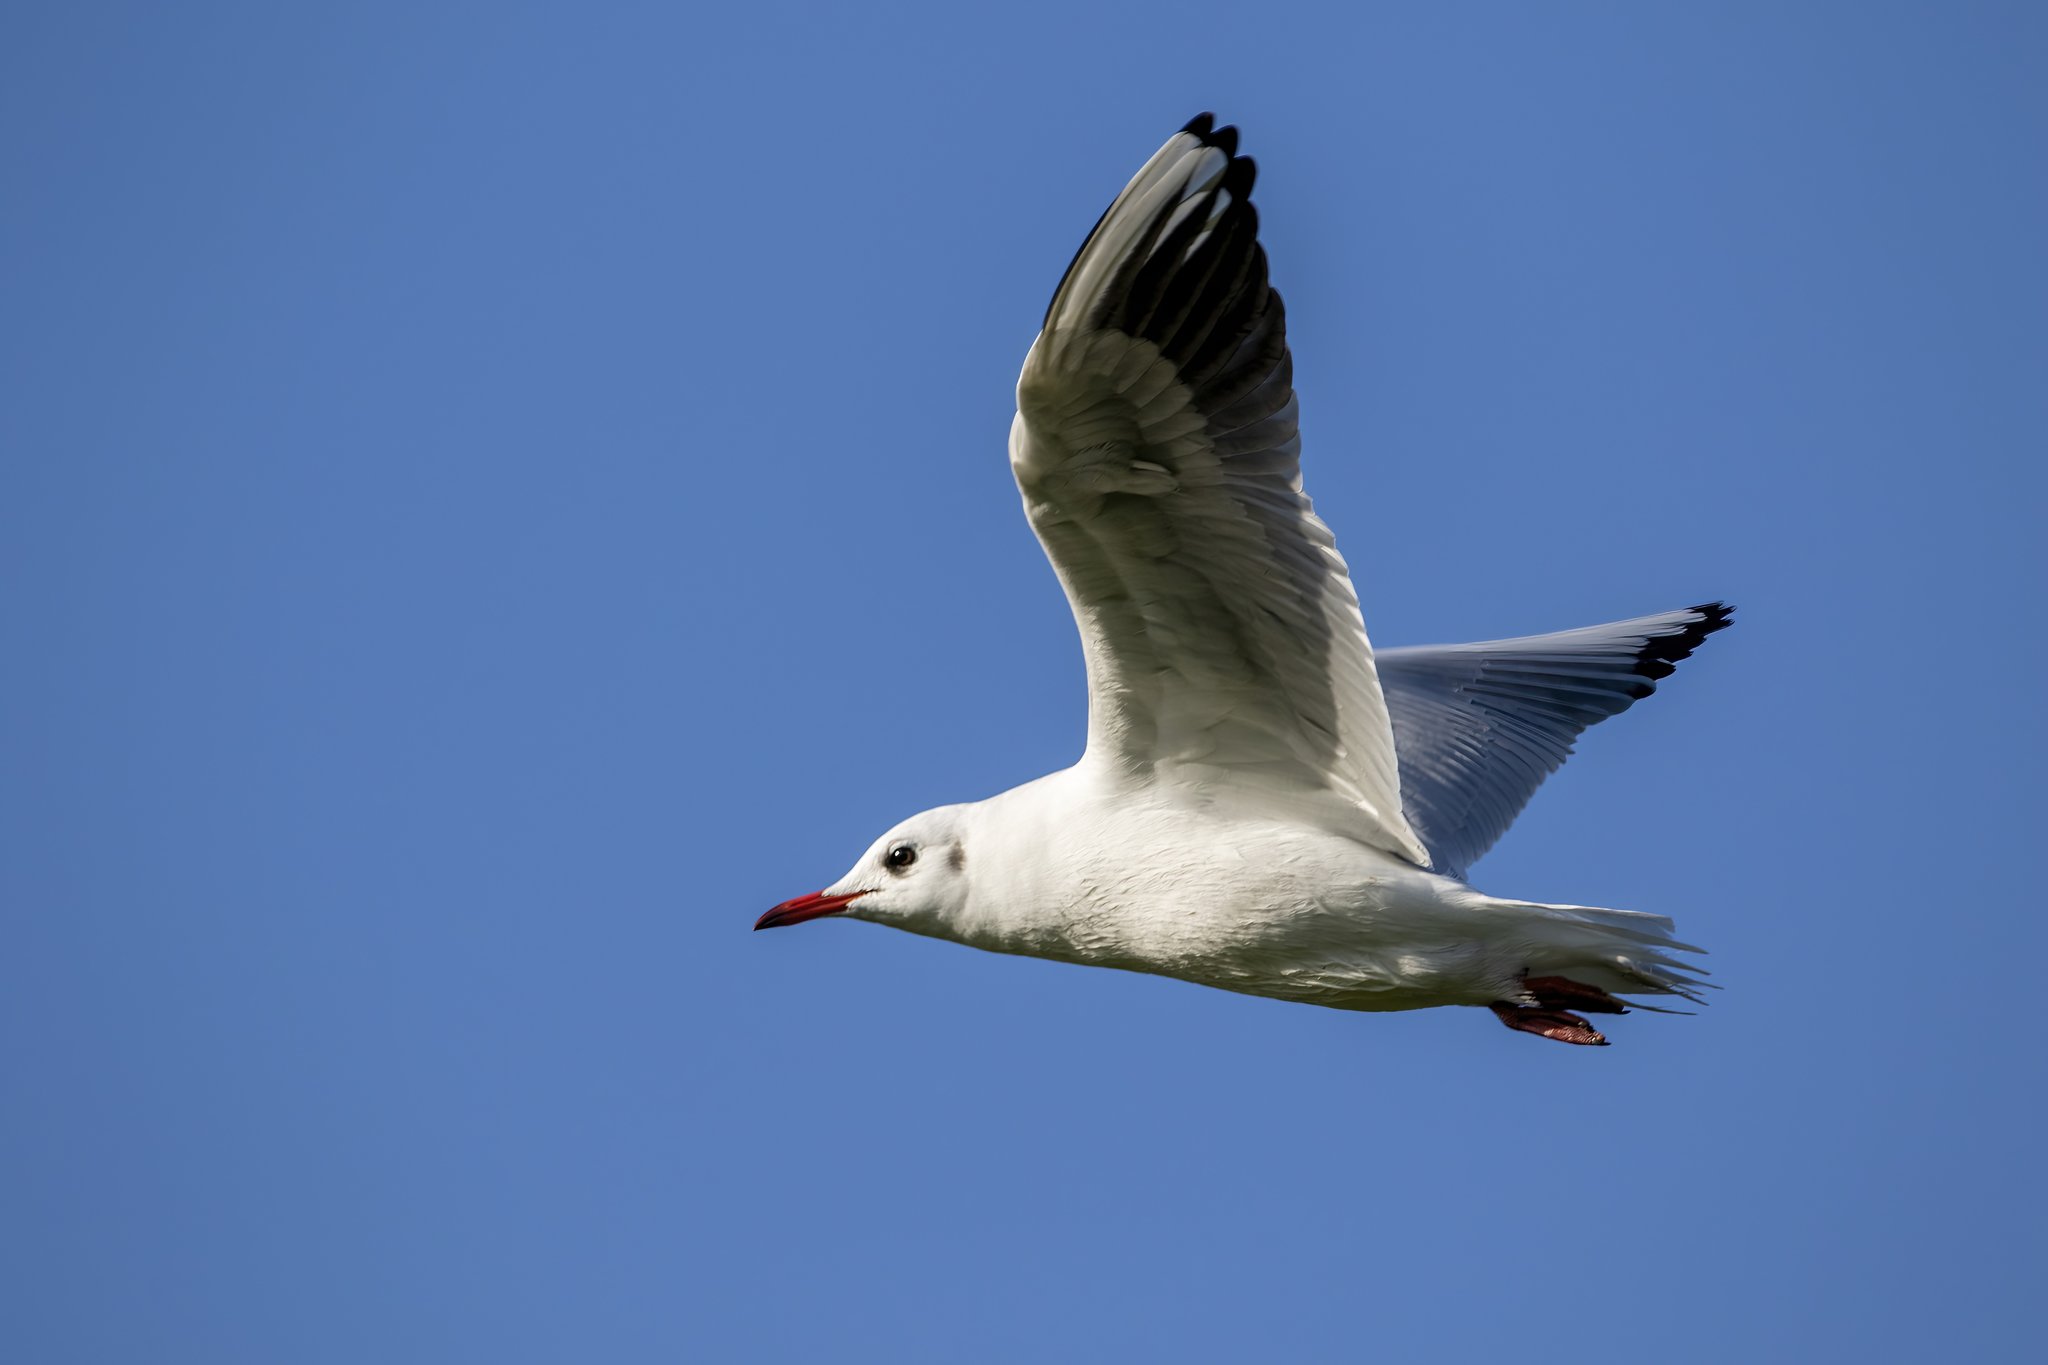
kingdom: Animalia
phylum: Chordata
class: Aves
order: Charadriiformes
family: Laridae
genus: Chroicocephalus
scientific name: Chroicocephalus ridibundus
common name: Black-headed gull
